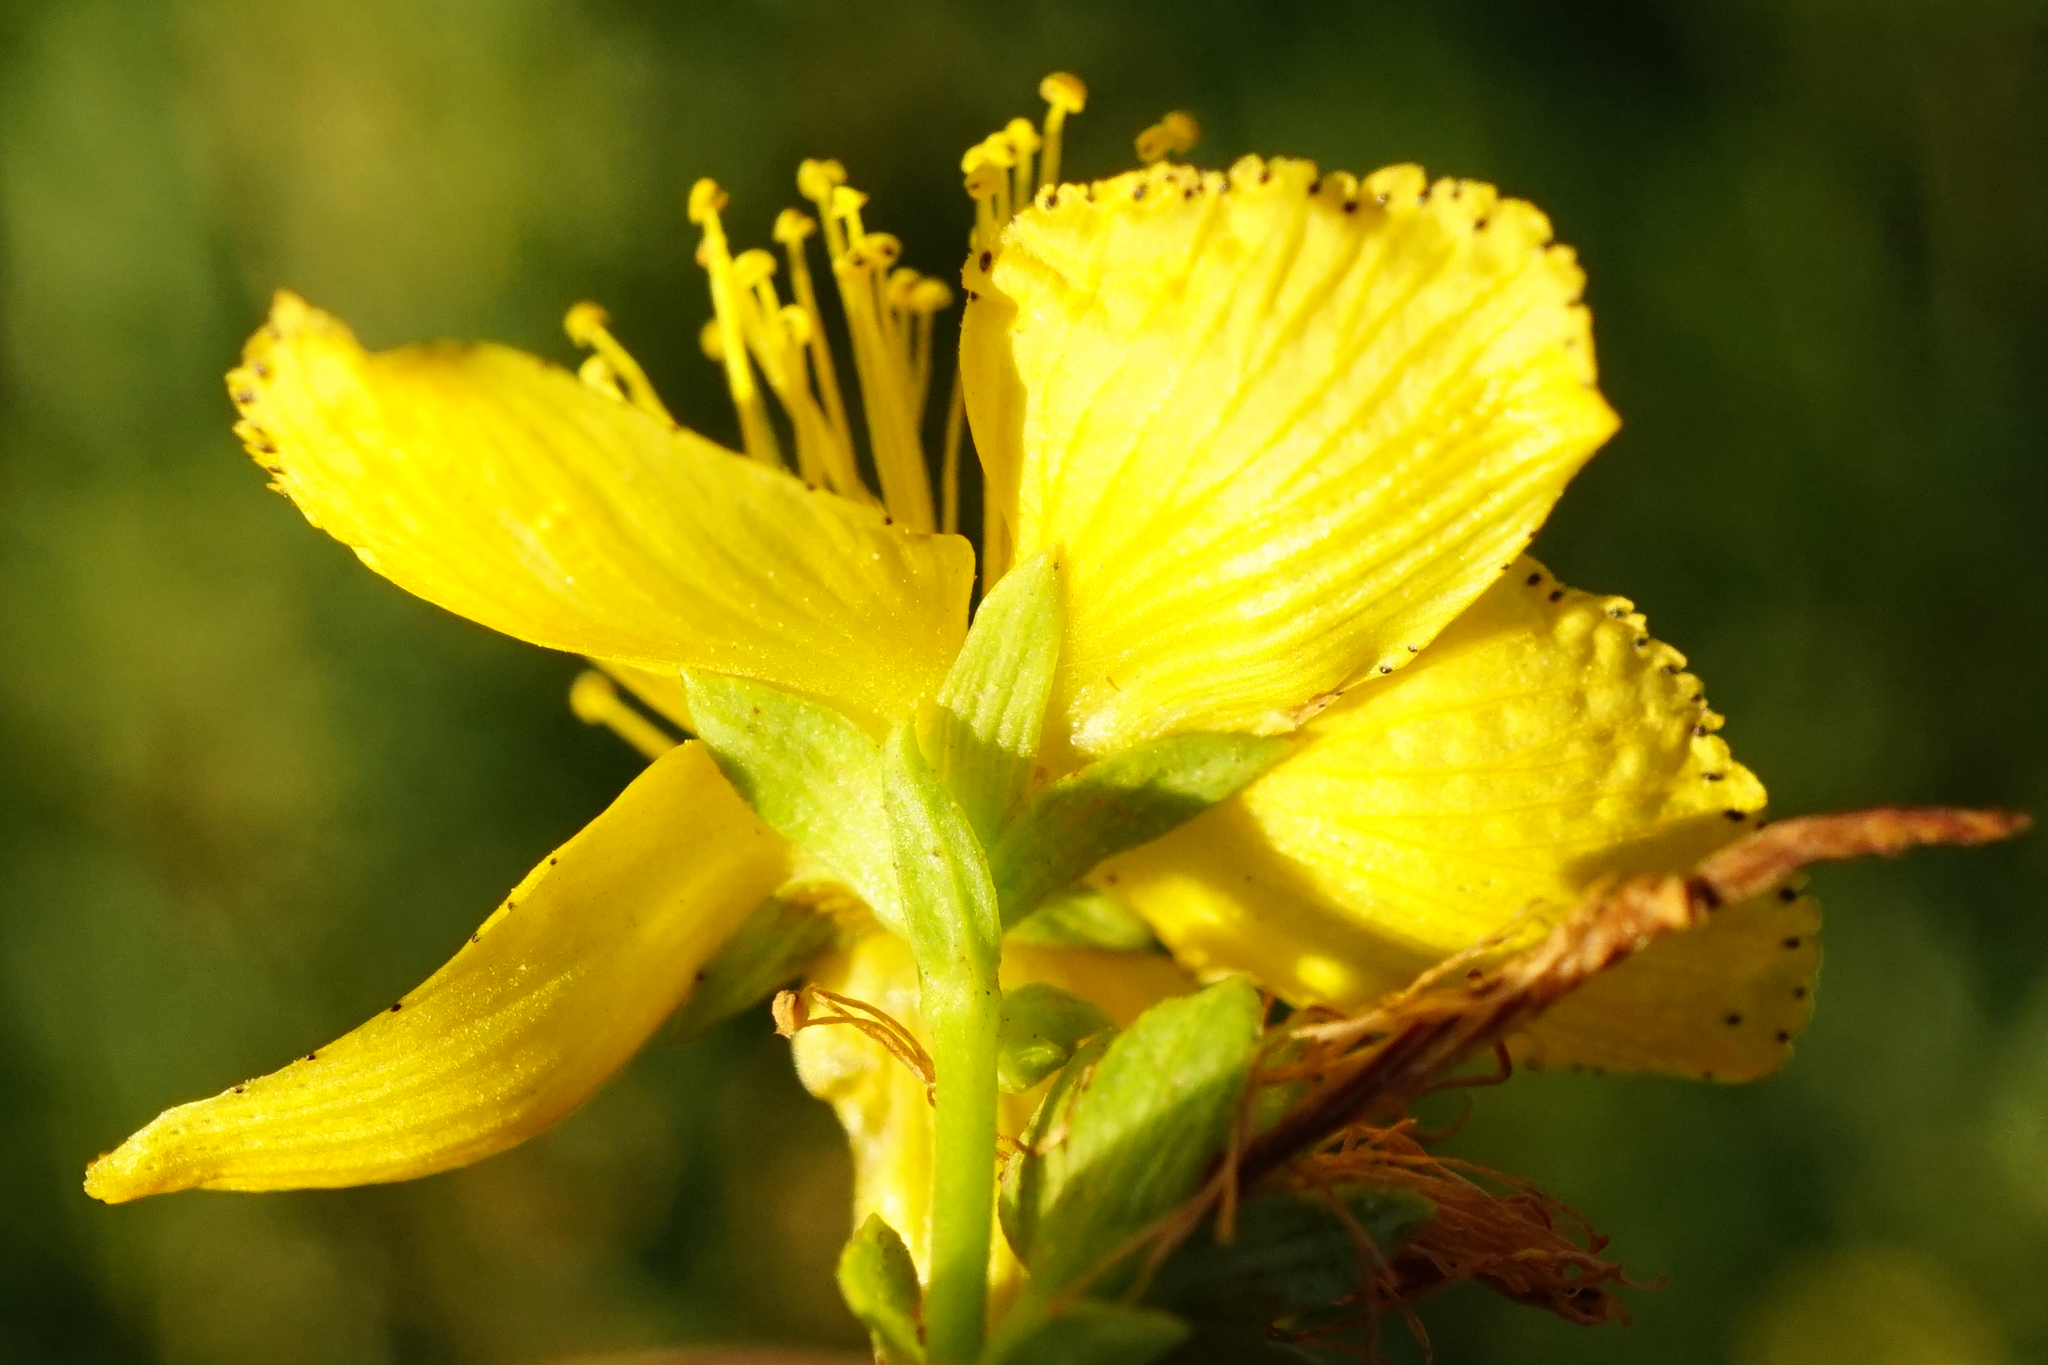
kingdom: Plantae
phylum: Tracheophyta
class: Magnoliopsida
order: Malpighiales
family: Hypericaceae
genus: Hypericum
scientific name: Hypericum perforatum
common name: Common st. johnswort
